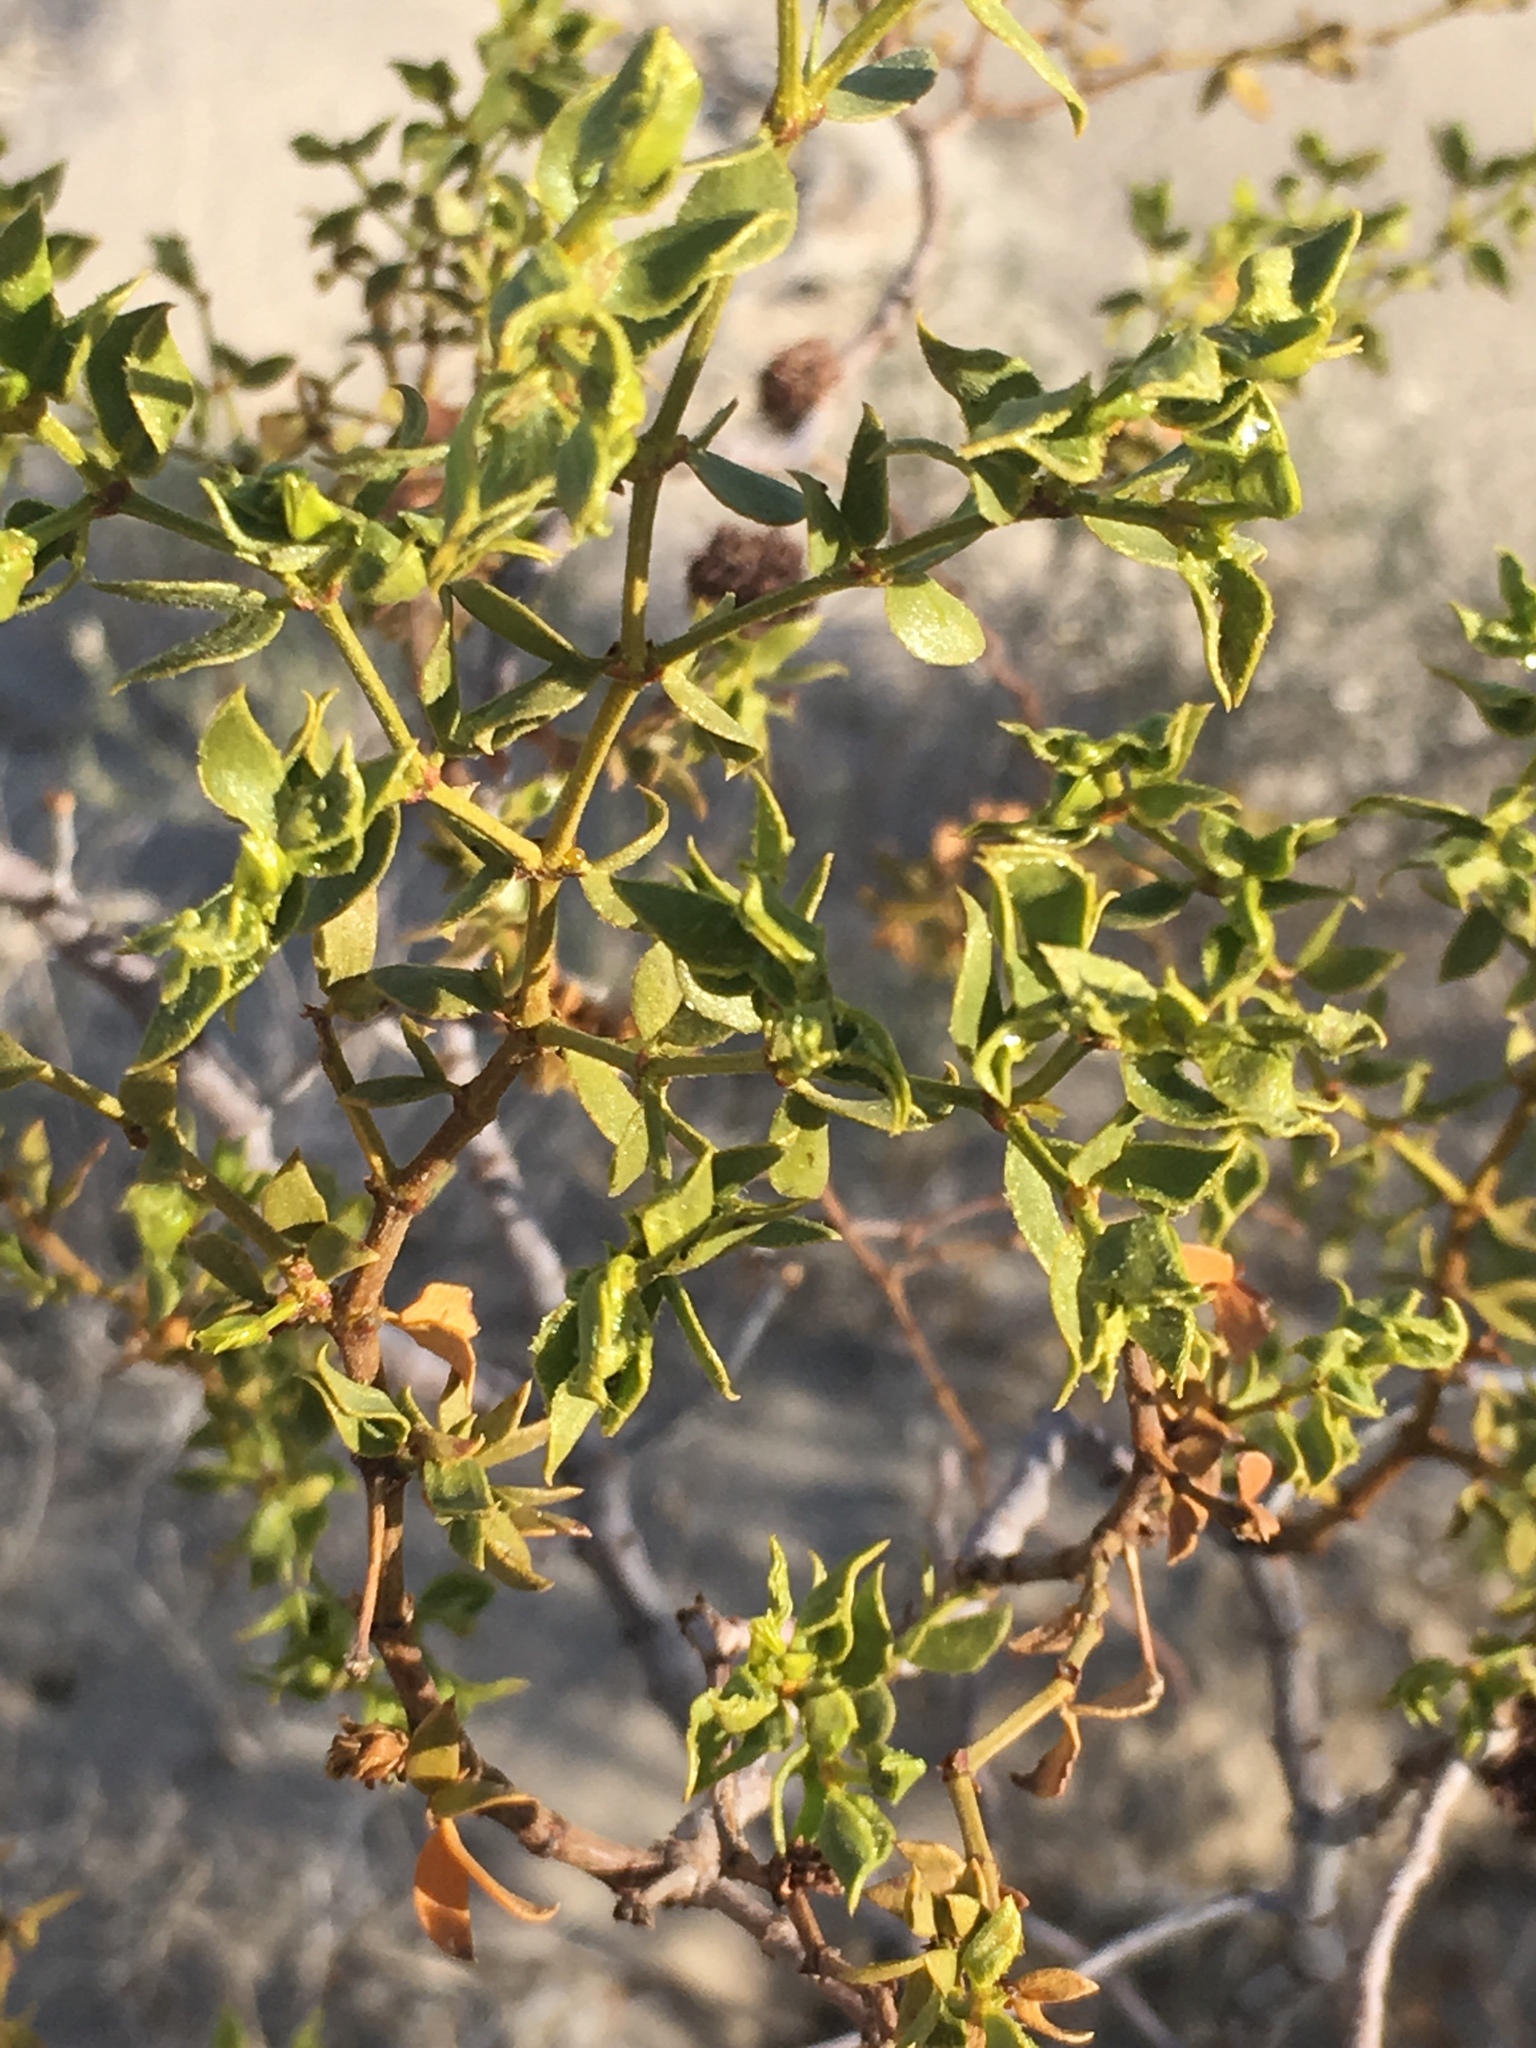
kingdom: Animalia
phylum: Arthropoda
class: Insecta
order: Diptera
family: Cecidomyiidae
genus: Asphondylia
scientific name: Asphondylia auripila
